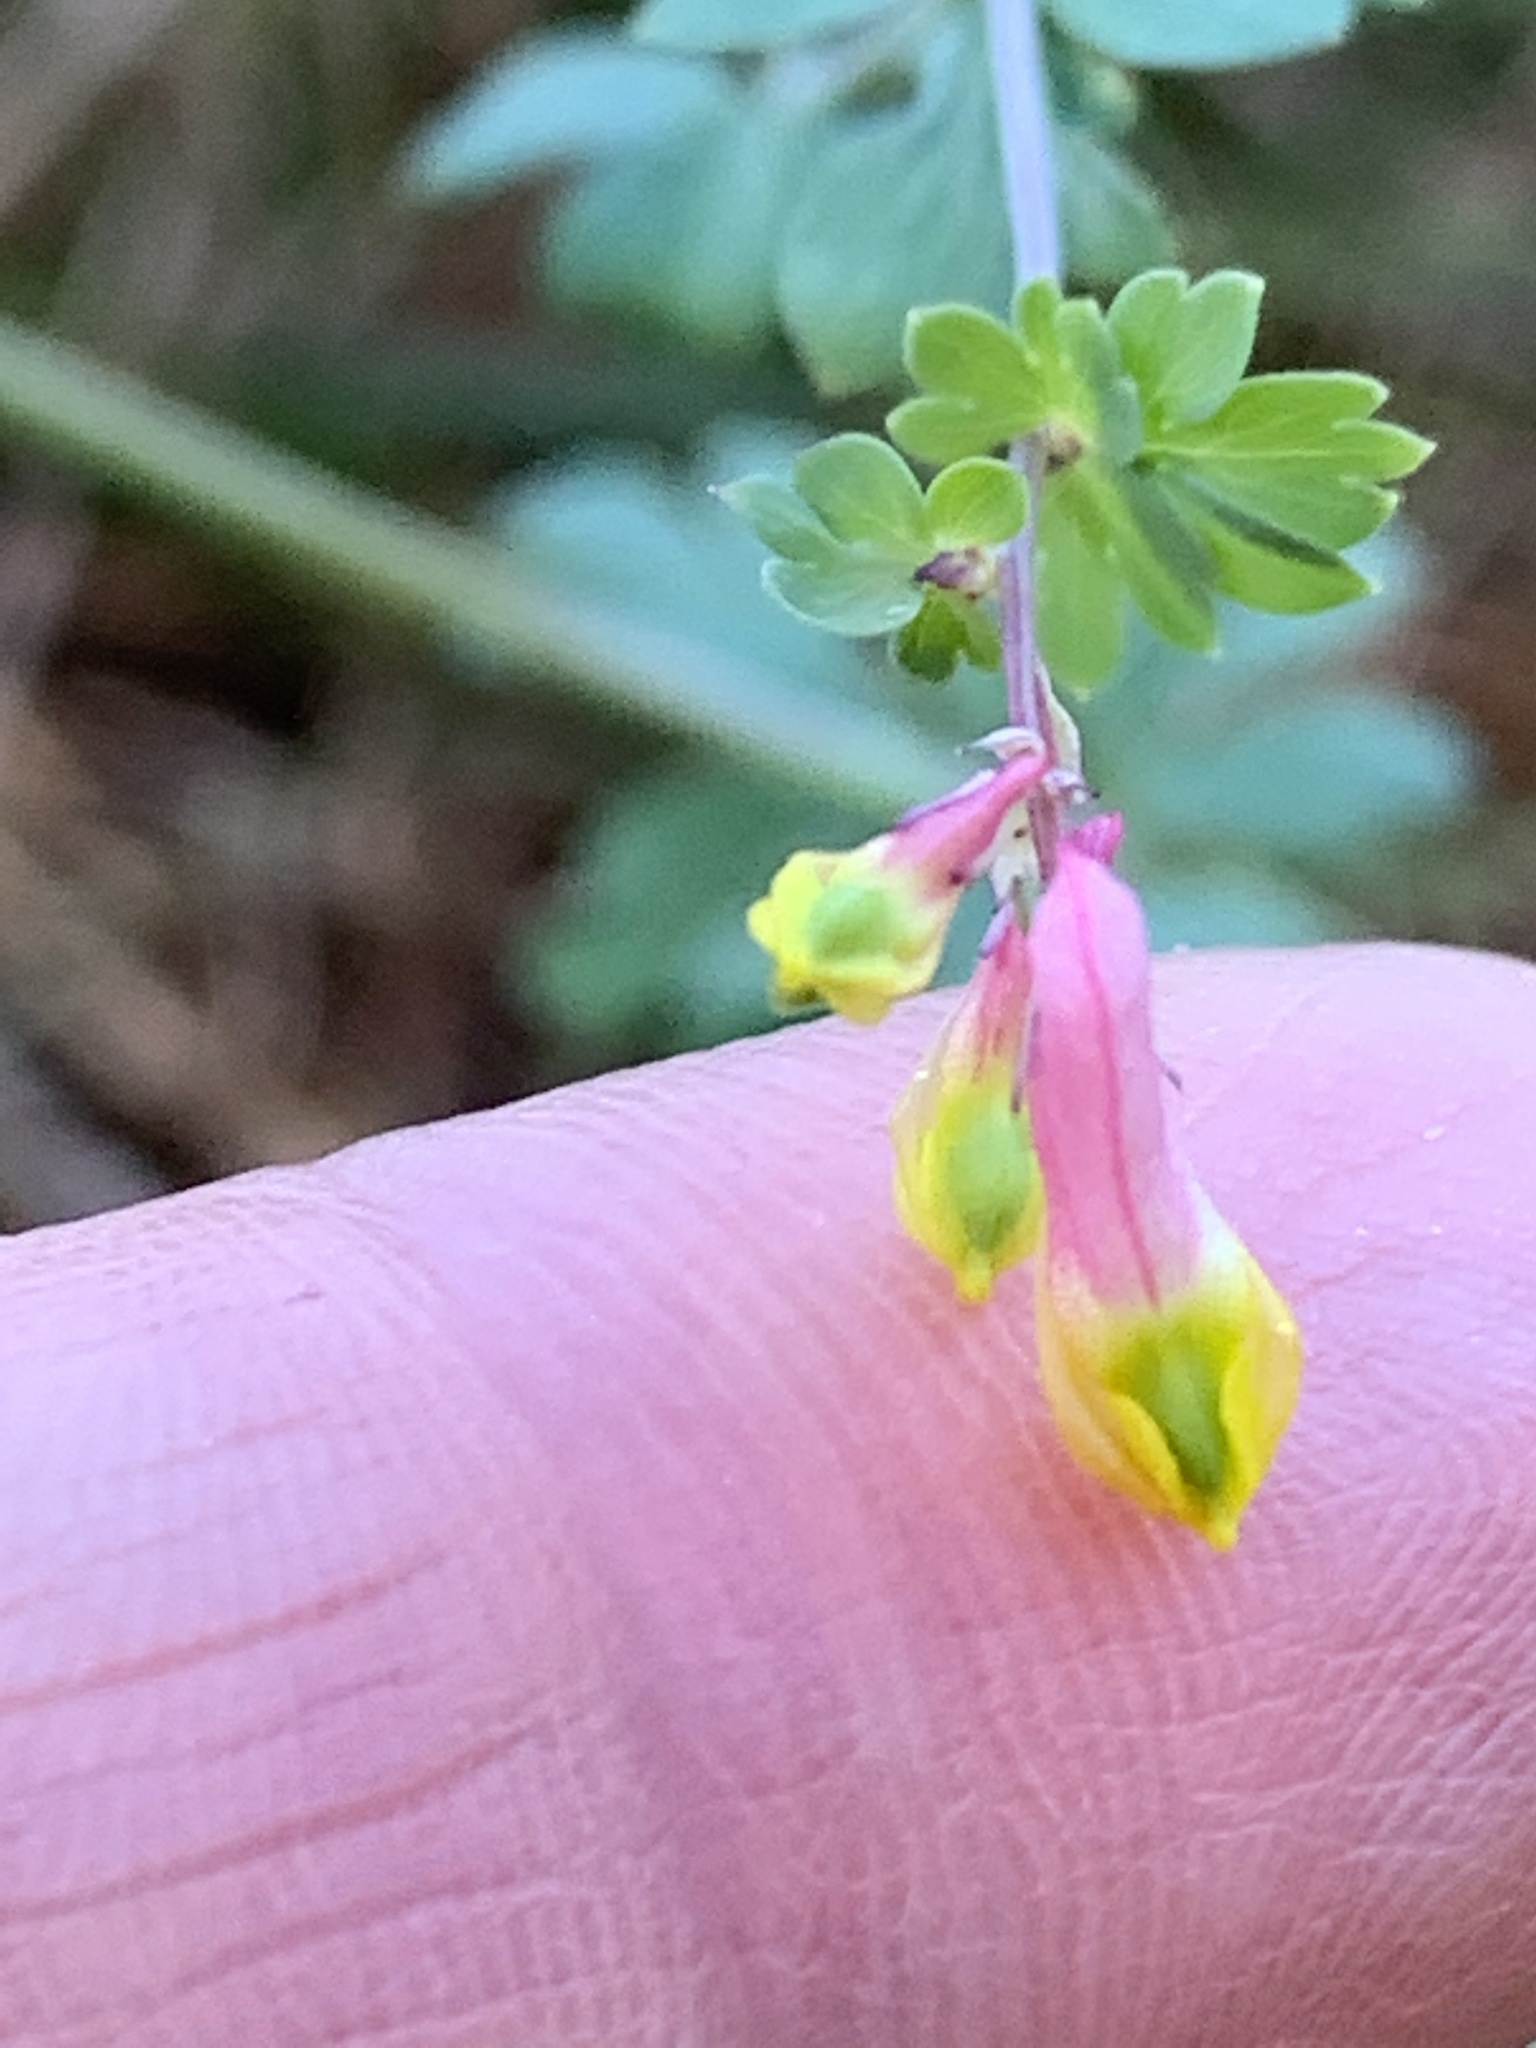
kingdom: Plantae
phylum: Tracheophyta
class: Magnoliopsida
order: Ranunculales
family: Papaveraceae
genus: Capnoides
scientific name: Capnoides sempervirens
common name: Rock harlequin
